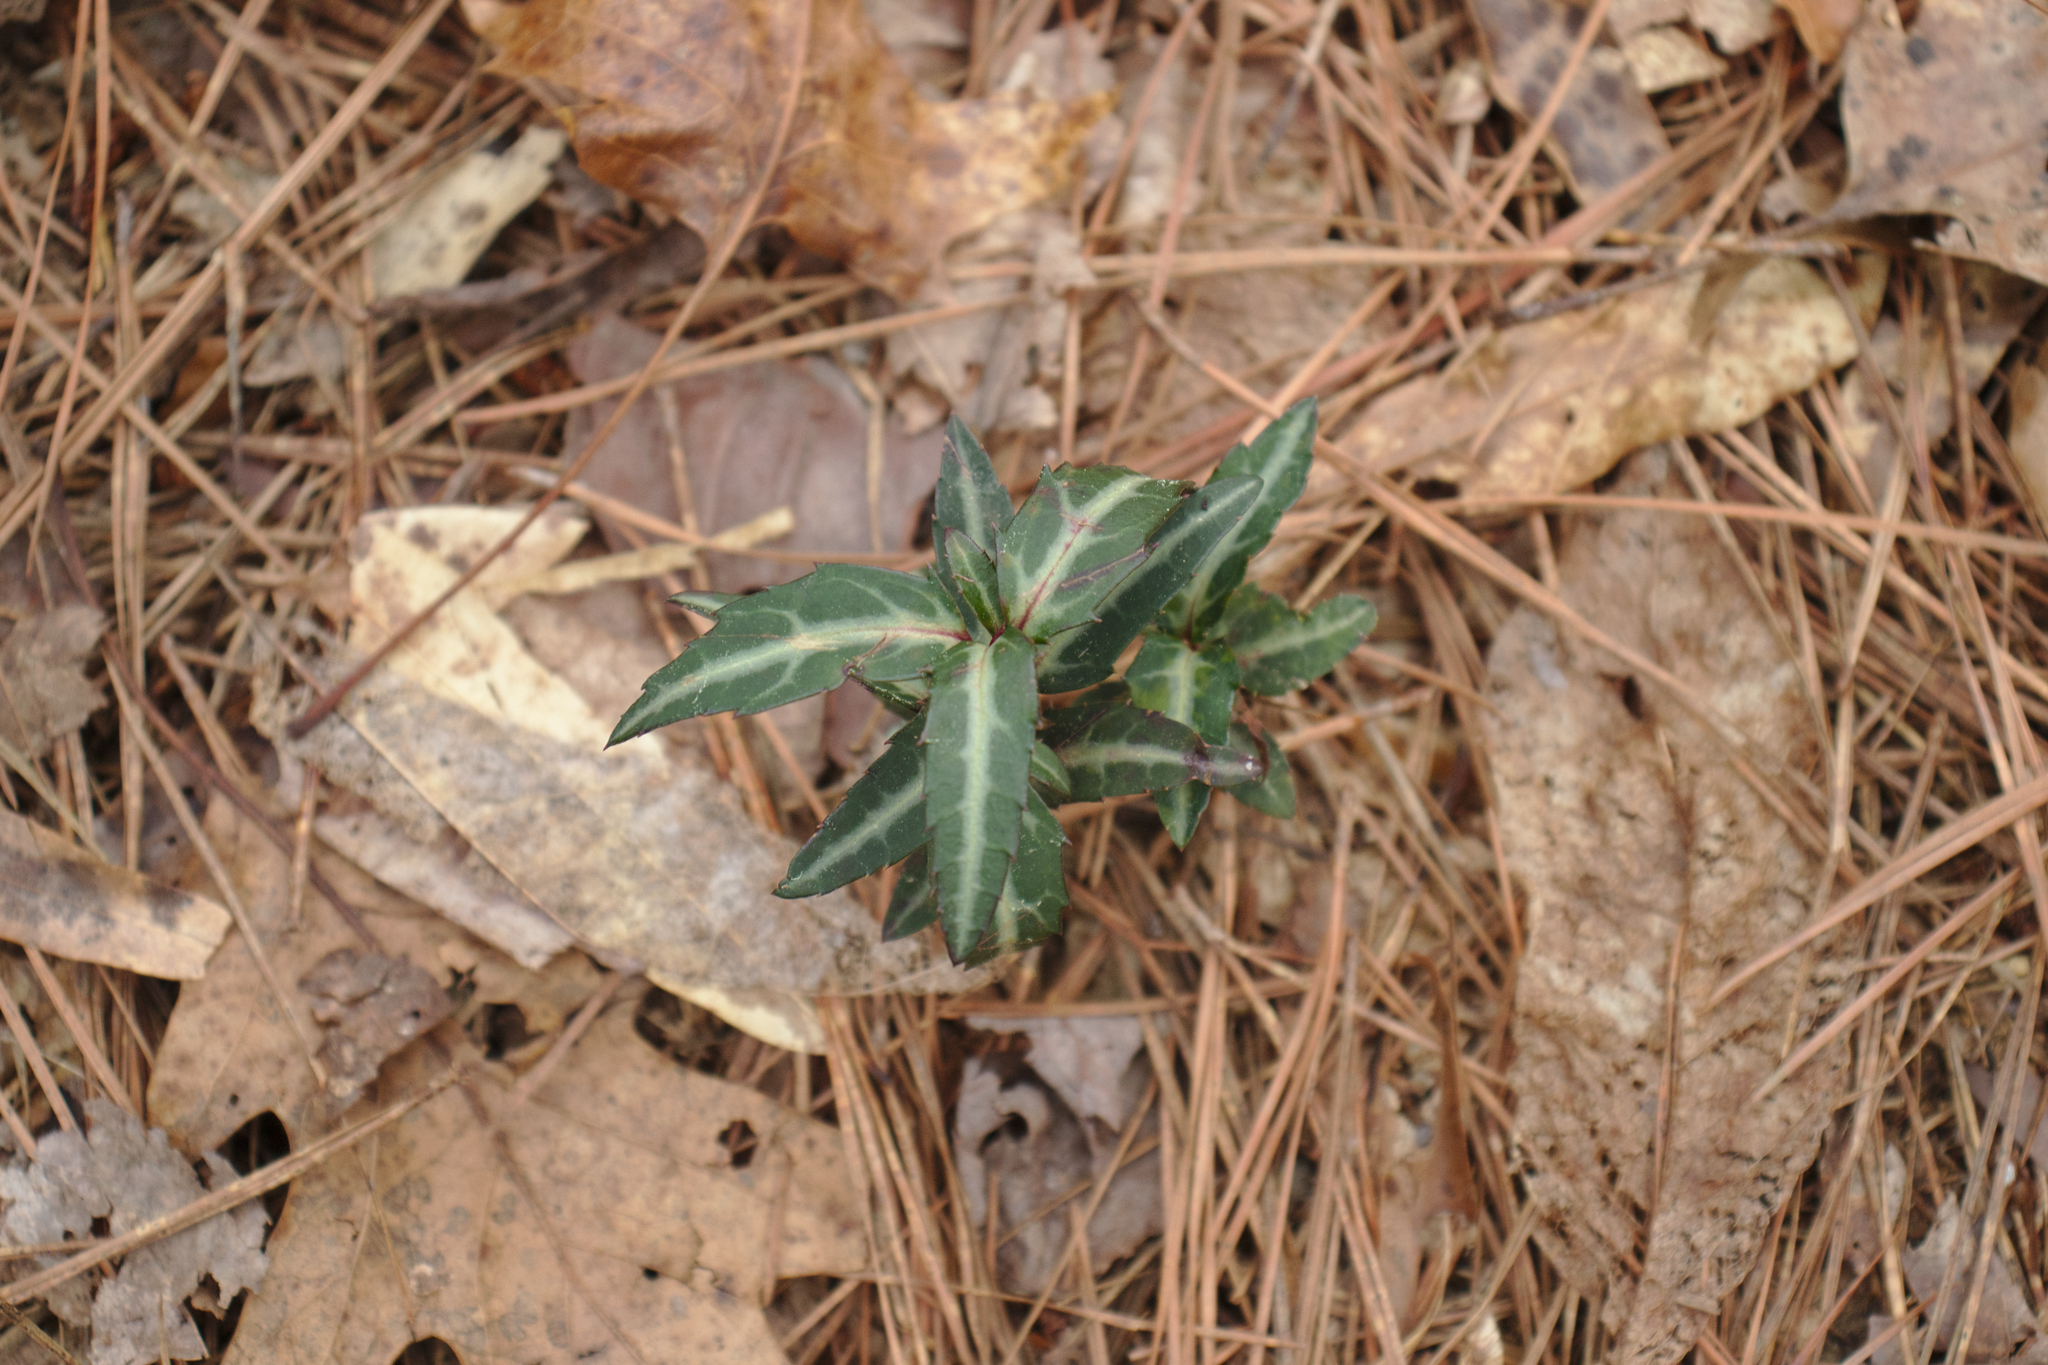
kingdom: Plantae
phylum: Tracheophyta
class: Magnoliopsida
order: Ericales
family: Ericaceae
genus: Chimaphila
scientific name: Chimaphila maculata
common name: Spotted pipsissewa
